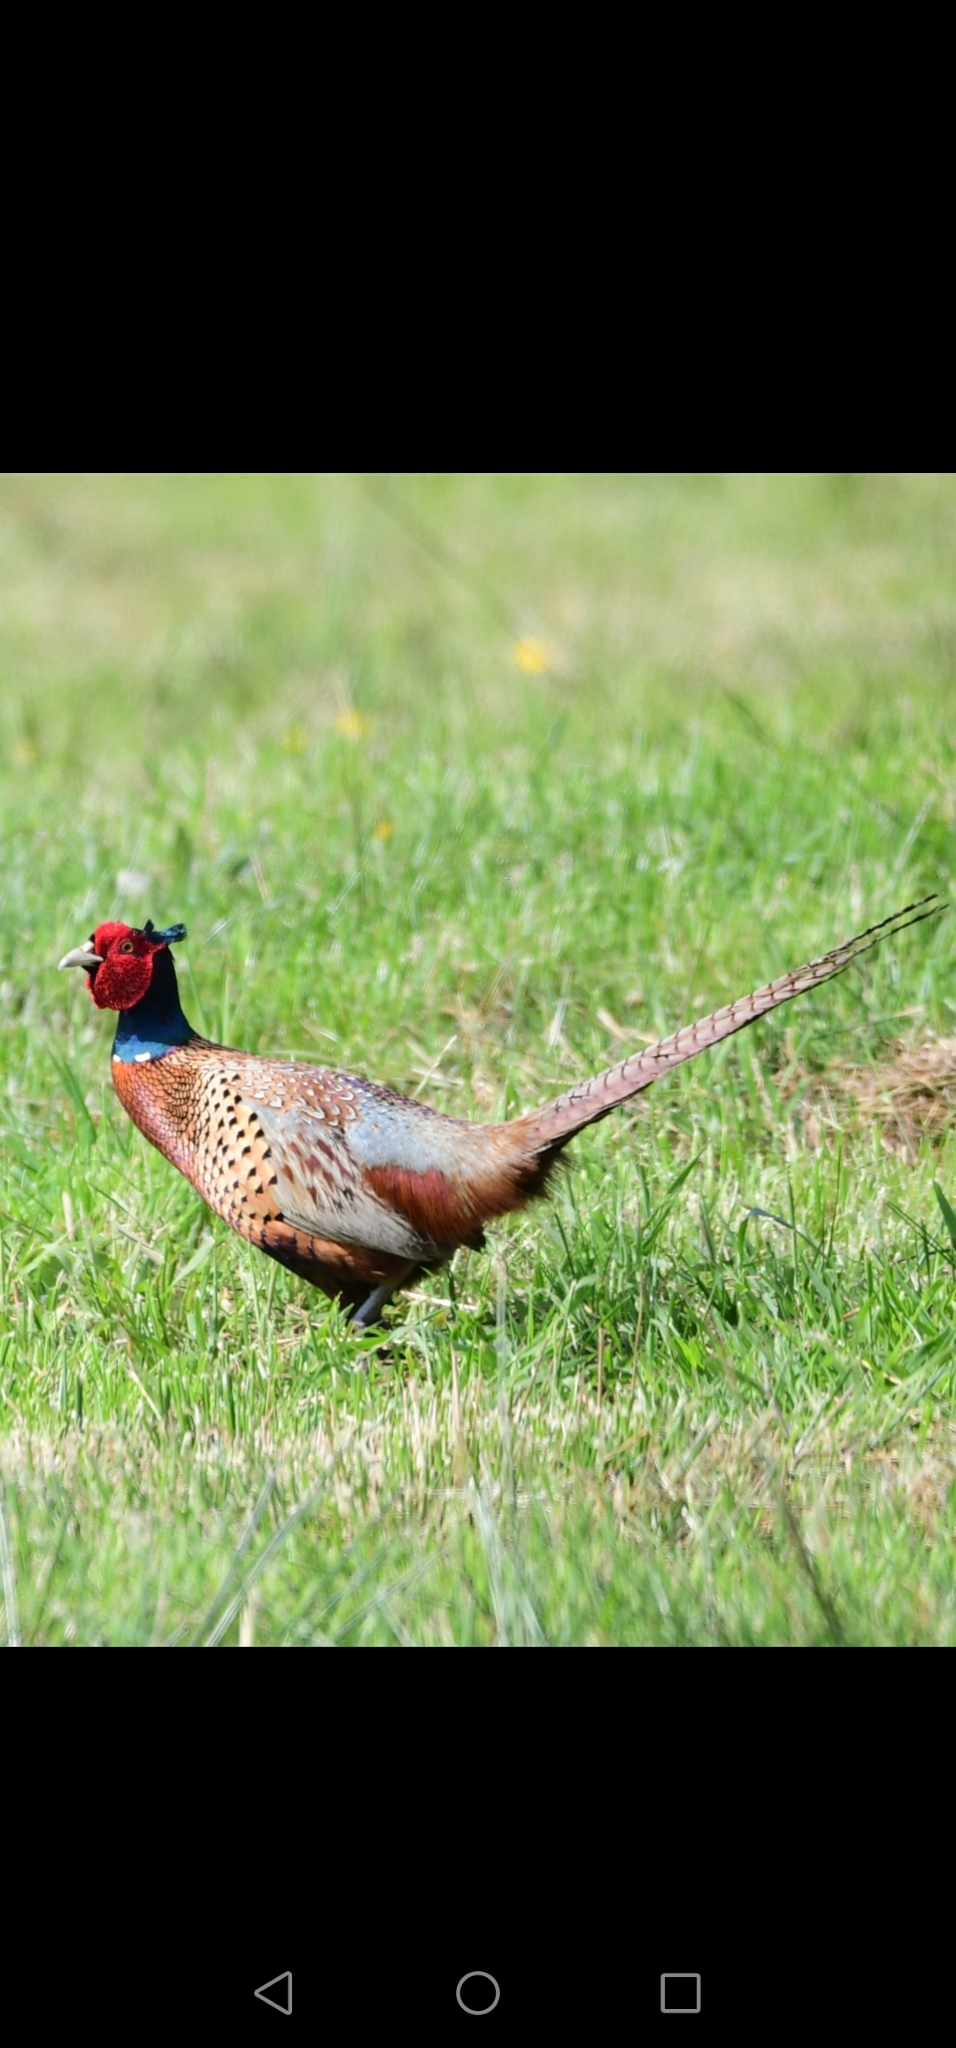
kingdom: Animalia
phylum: Chordata
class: Aves
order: Galliformes
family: Phasianidae
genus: Phasianus
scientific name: Phasianus colchicus
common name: Common pheasant
